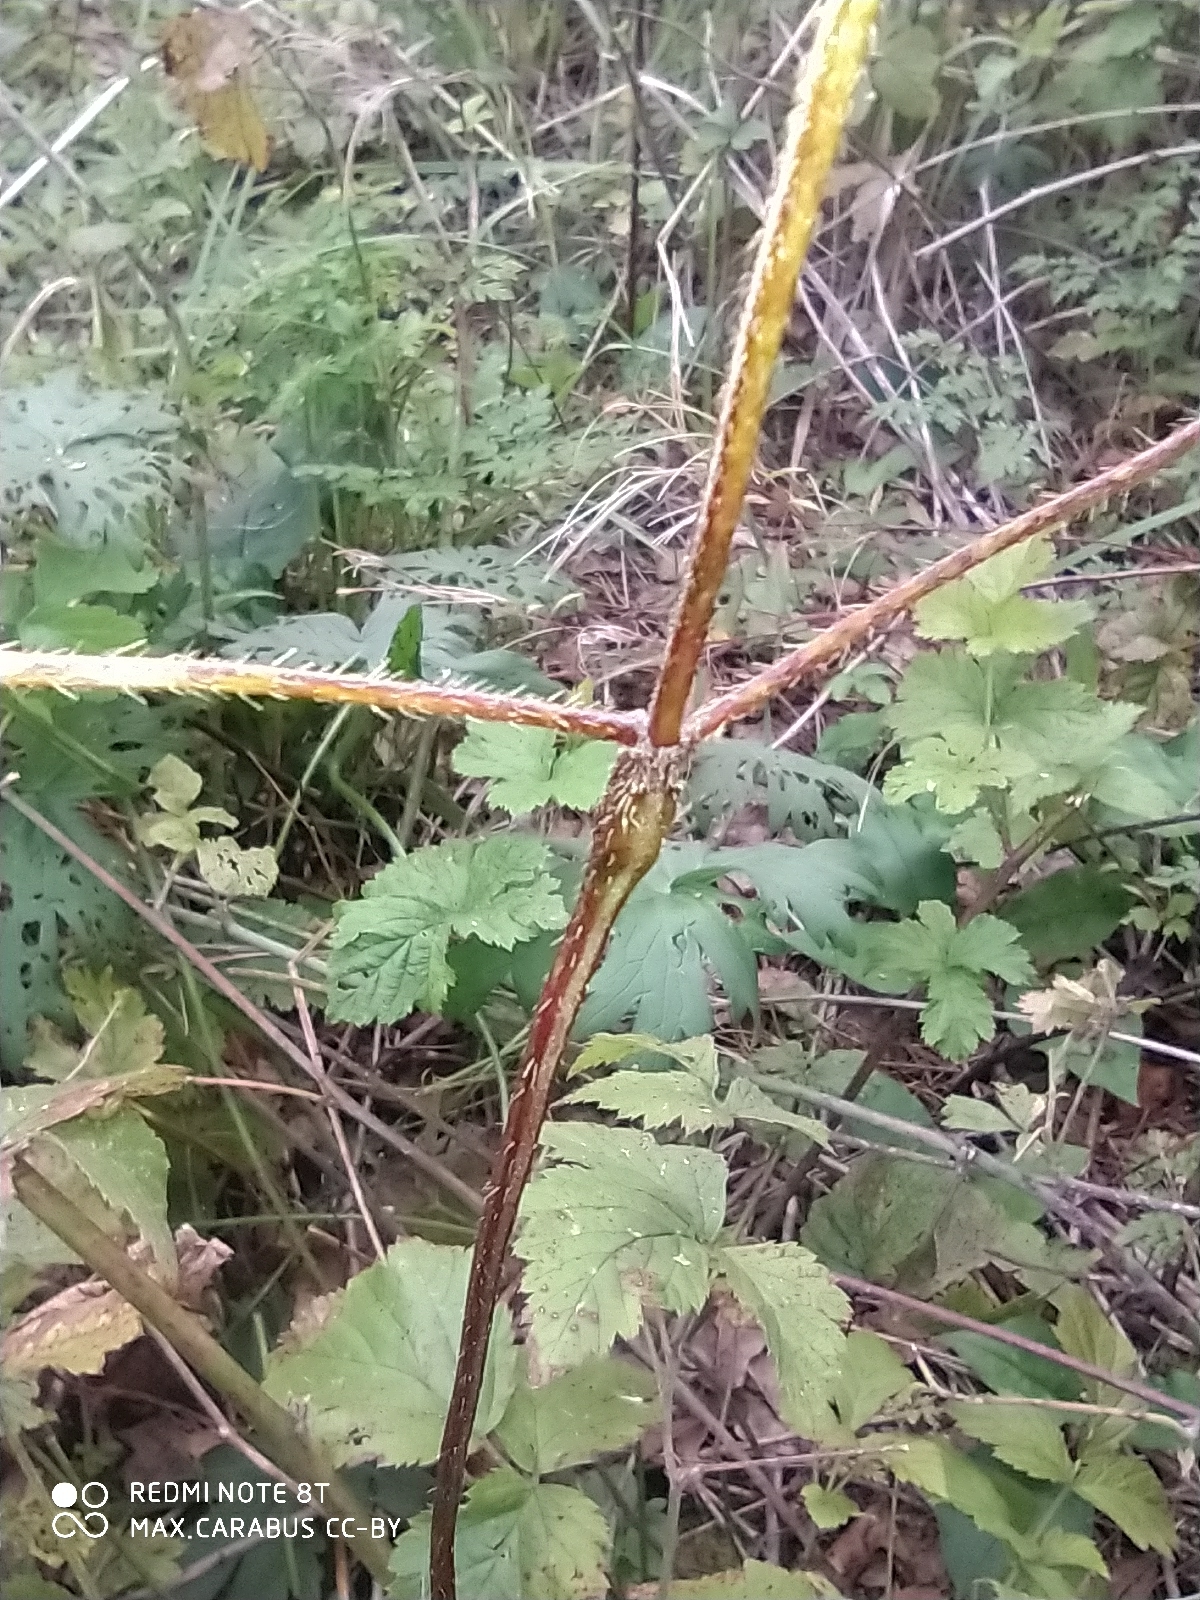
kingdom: Plantae
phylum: Tracheophyta
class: Magnoliopsida
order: Lamiales
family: Lamiaceae
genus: Galeopsis
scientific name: Galeopsis
